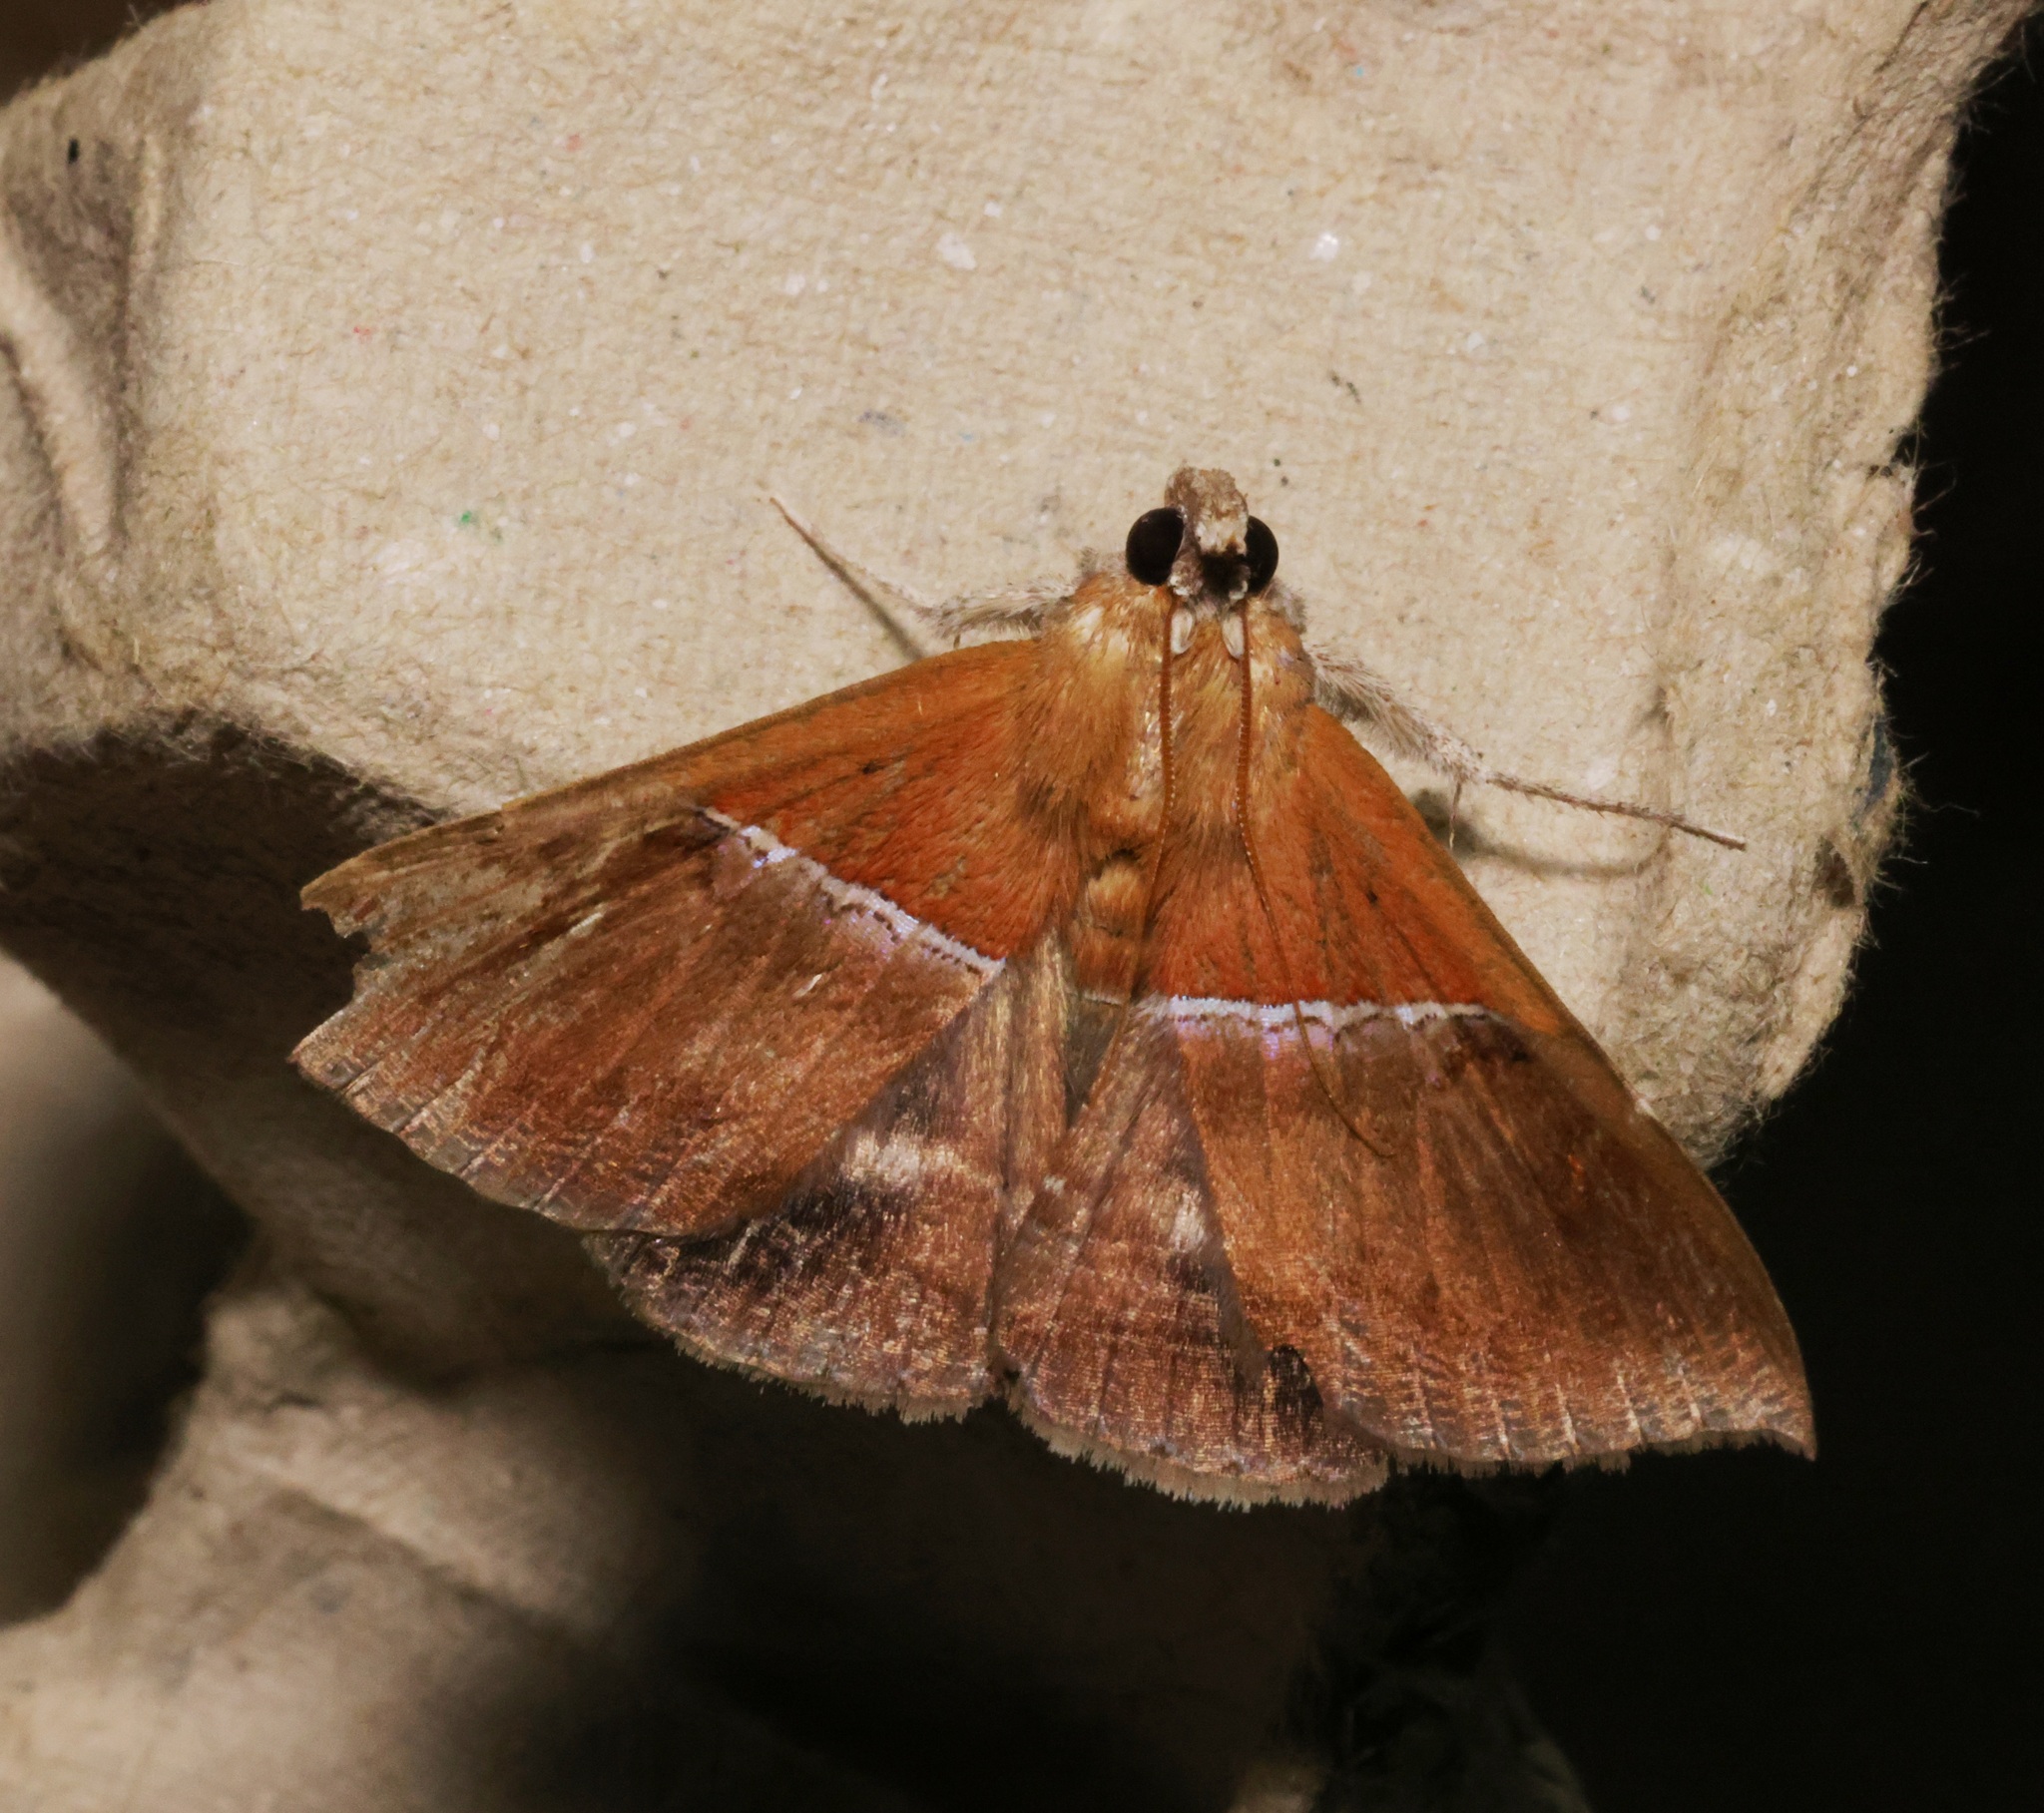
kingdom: Animalia
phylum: Arthropoda
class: Insecta
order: Lepidoptera
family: Erebidae
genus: Sympis
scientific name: Sympis rufibasis
